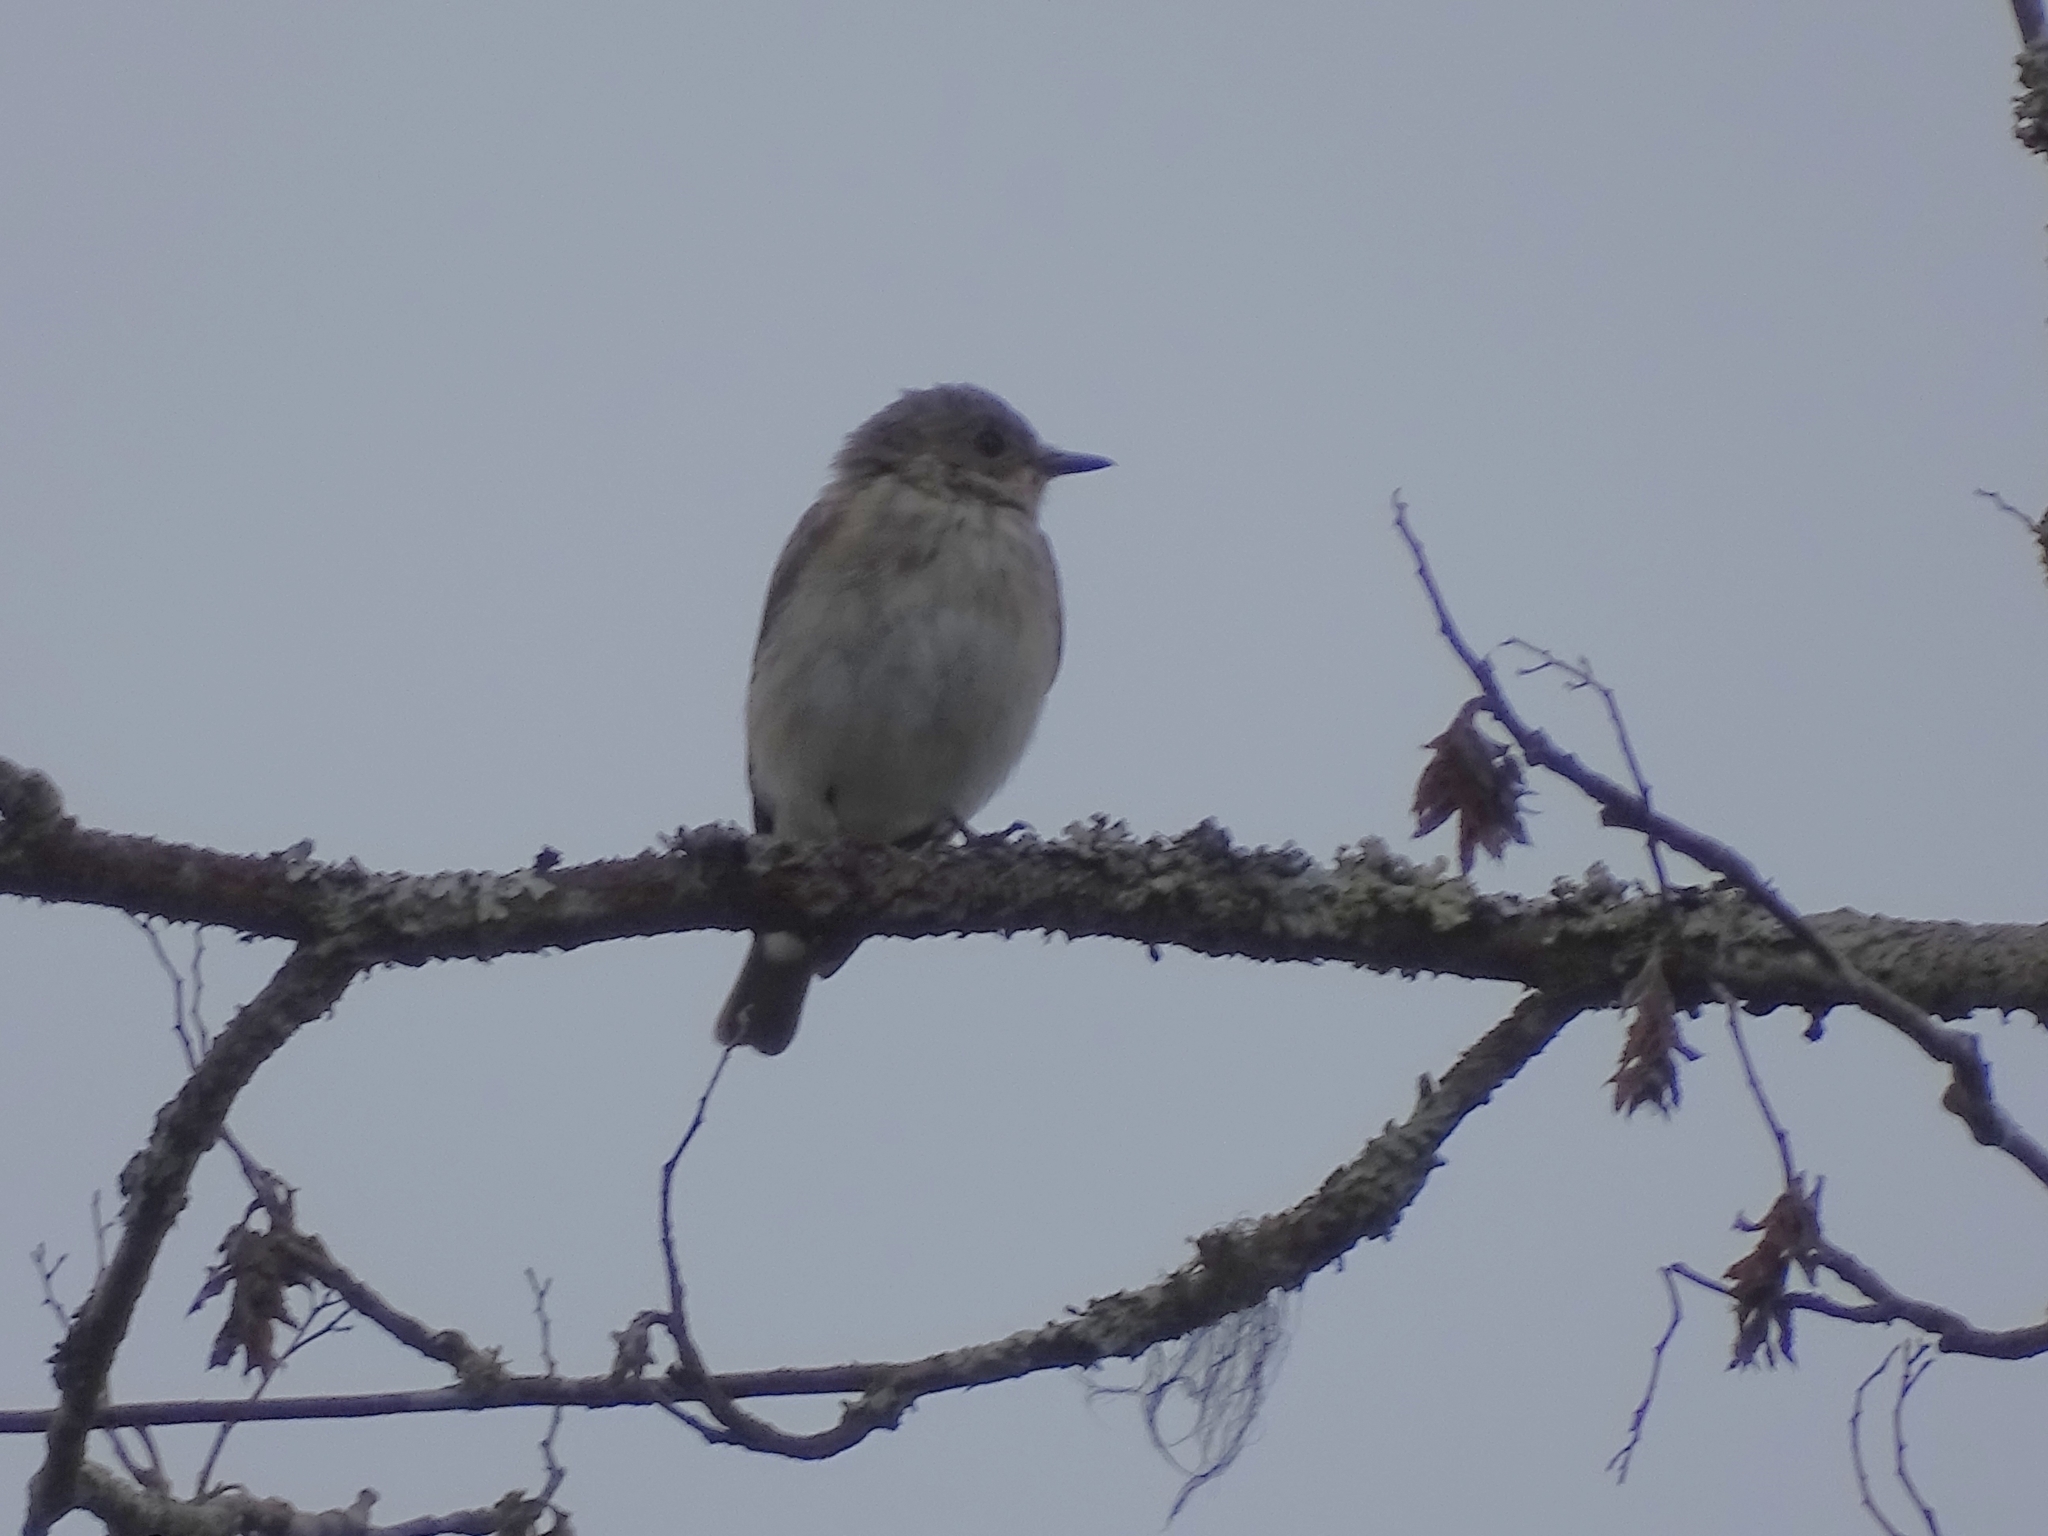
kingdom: Animalia
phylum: Chordata
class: Aves
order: Passeriformes
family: Muscicapidae
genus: Muscicapa
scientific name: Muscicapa striata
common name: Spotted flycatcher
